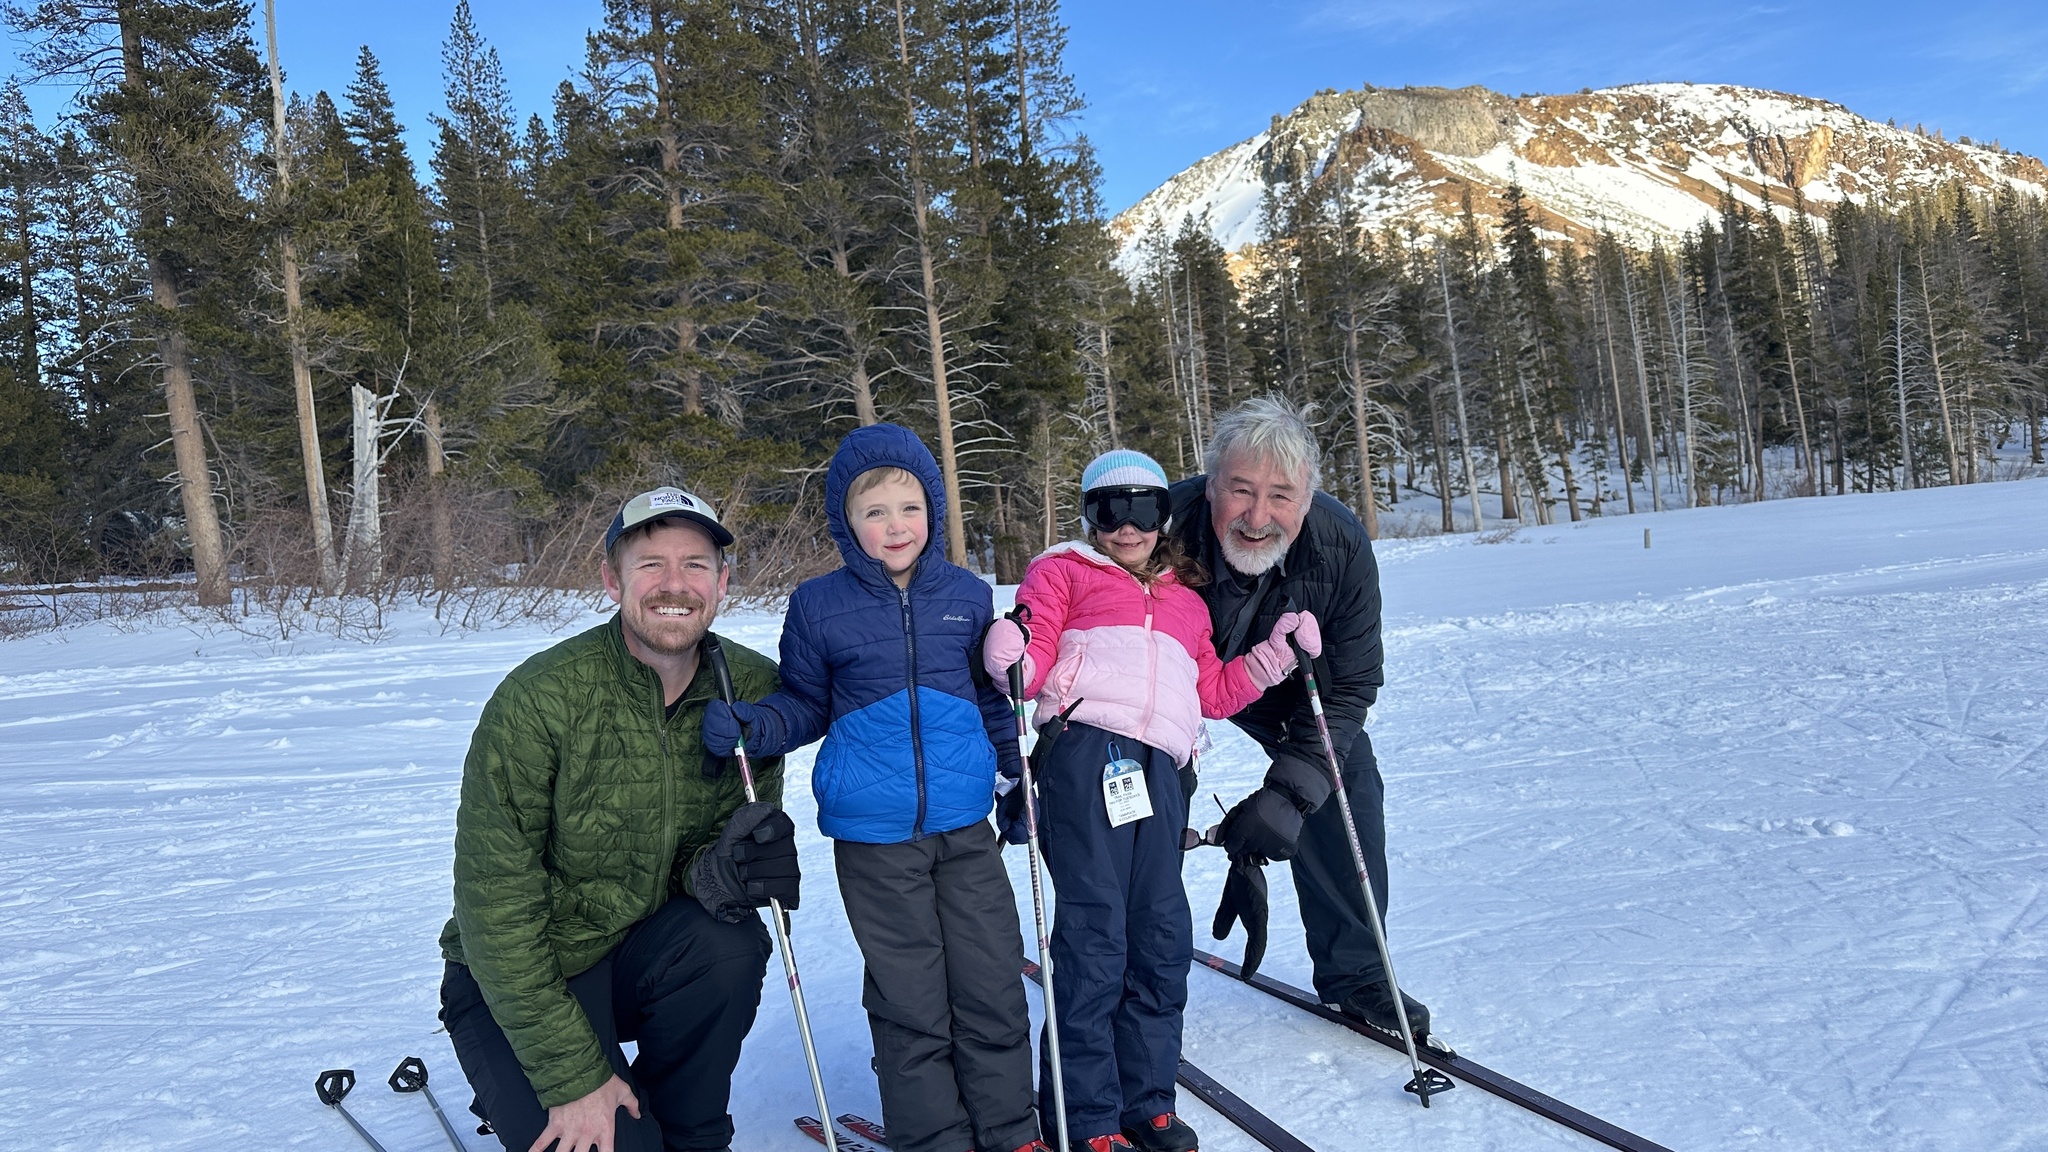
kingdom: Plantae
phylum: Tracheophyta
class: Pinopsida
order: Pinales
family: Pinaceae
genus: Tsuga
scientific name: Tsuga mertensiana
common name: Mountain hemlock
